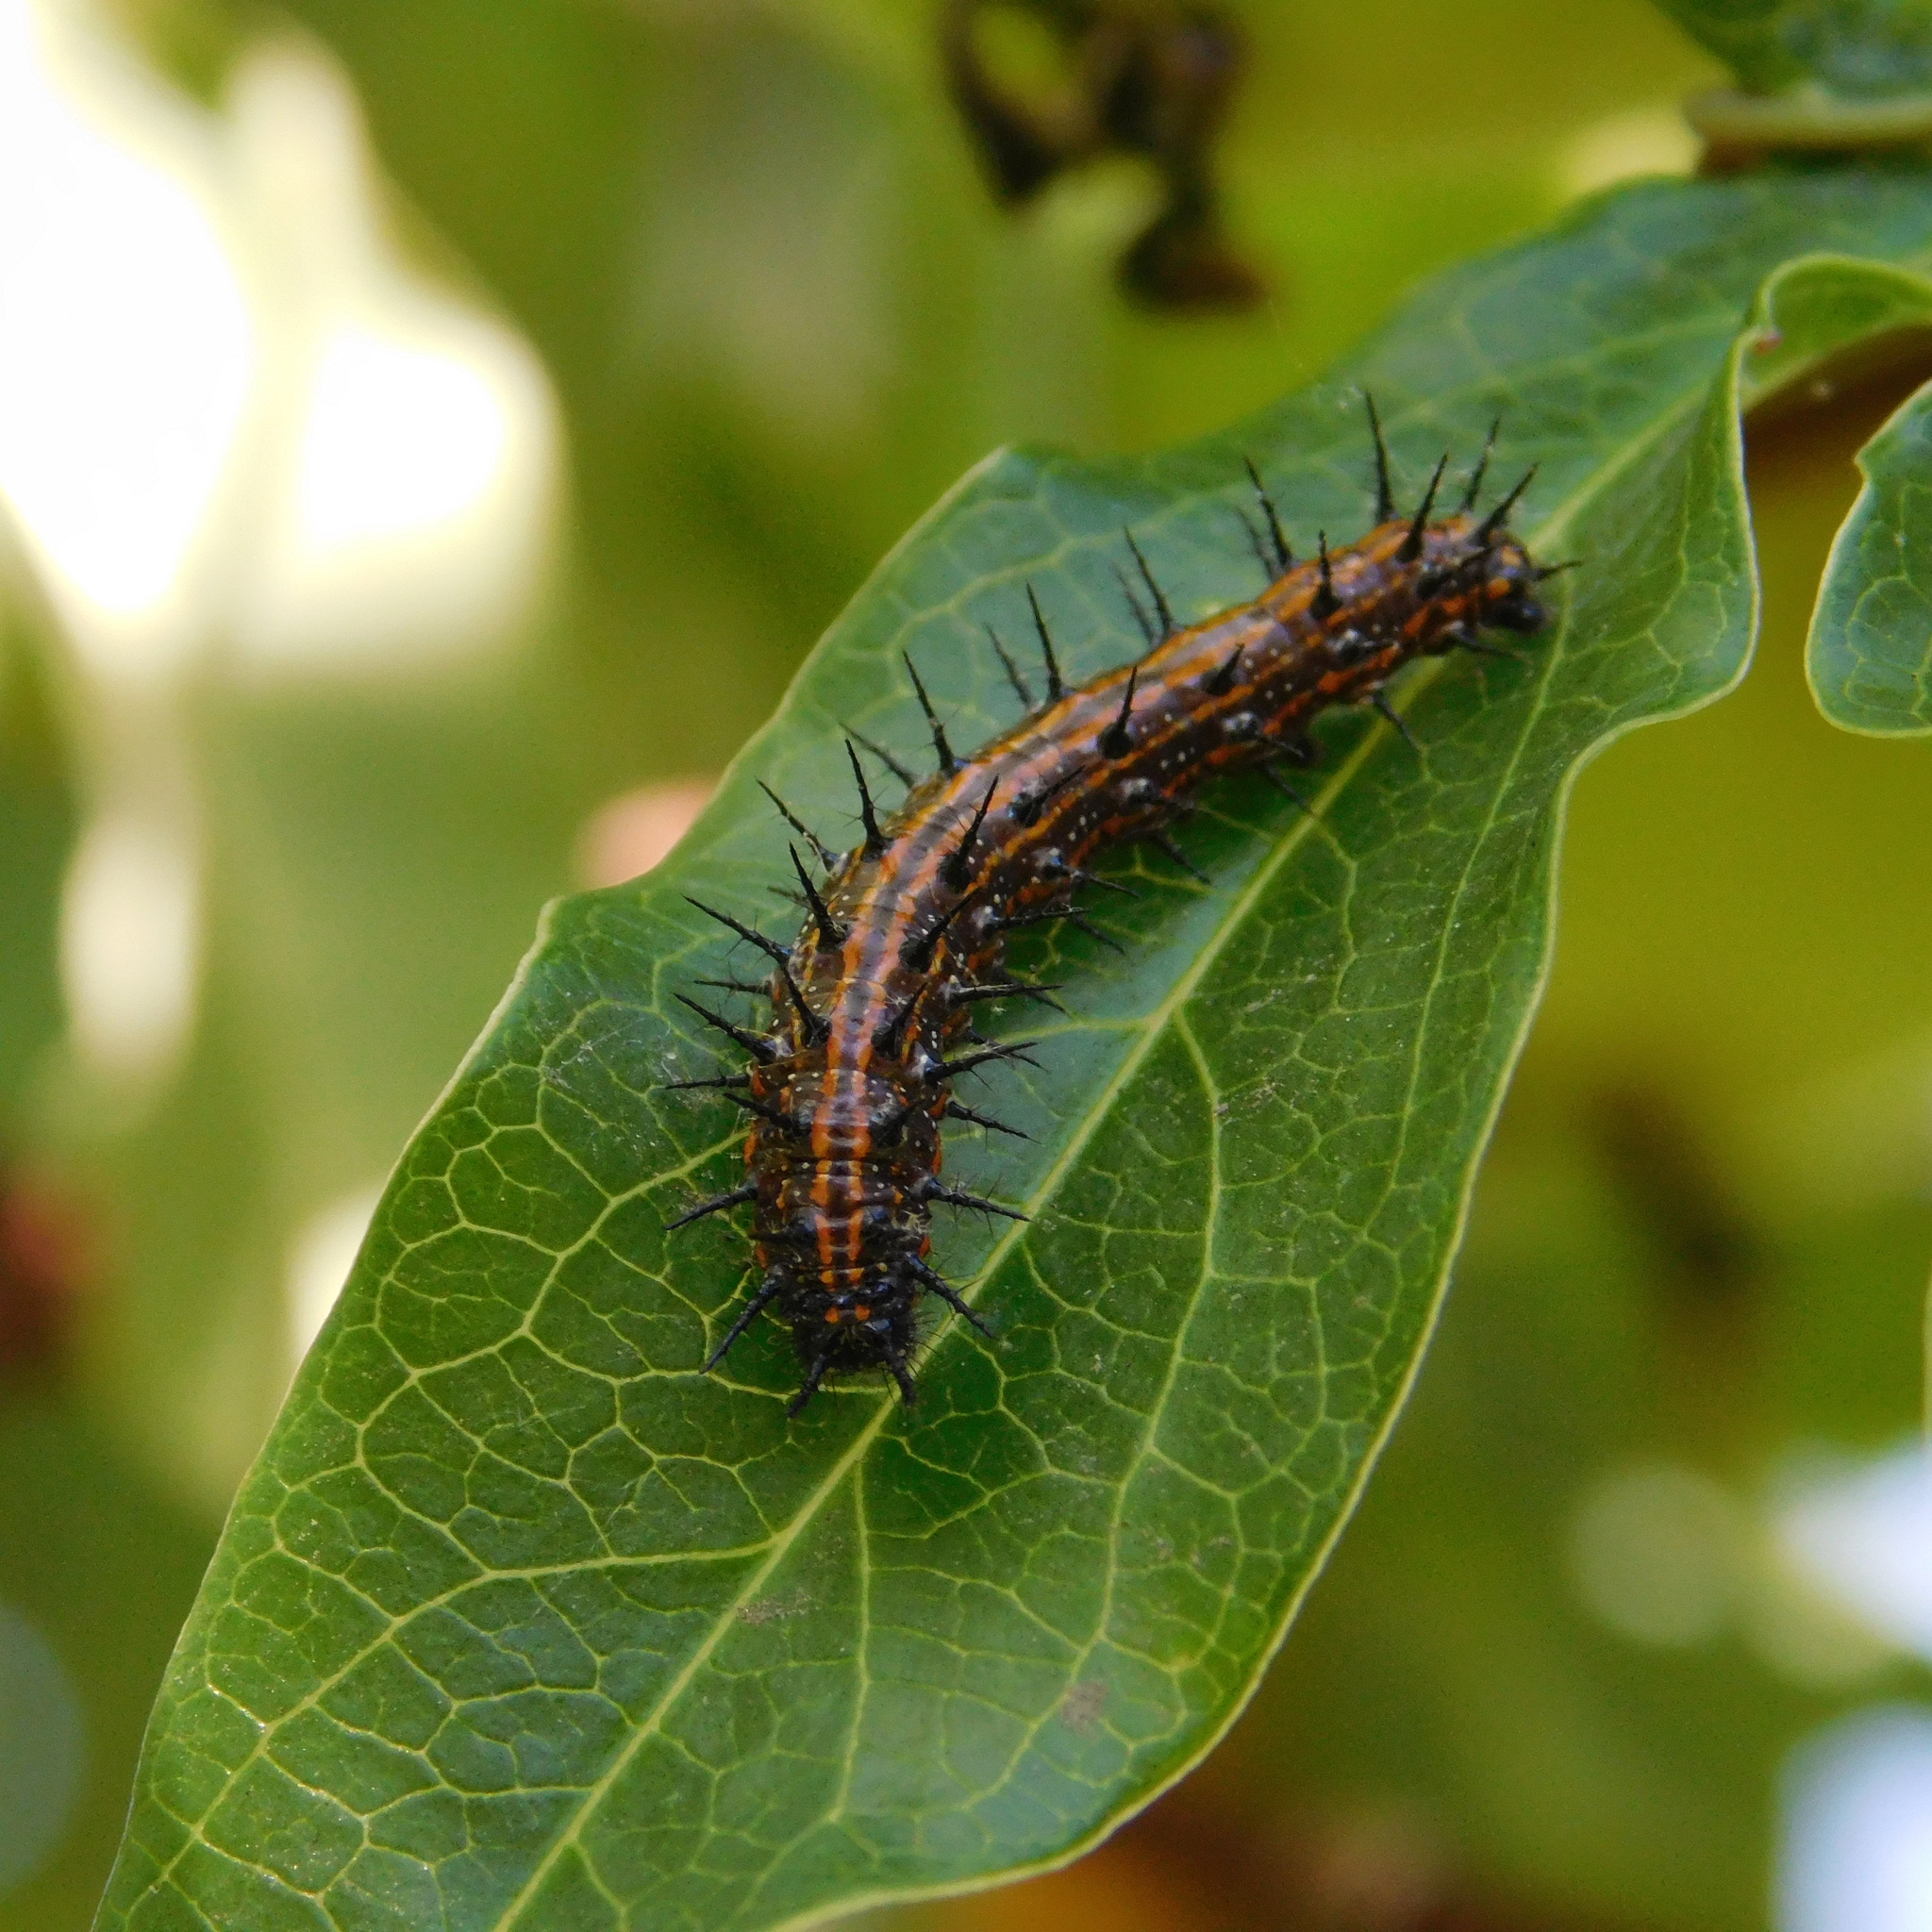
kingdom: Animalia
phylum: Arthropoda
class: Insecta
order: Lepidoptera
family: Nymphalidae
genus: Dione
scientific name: Dione vanillae
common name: Gulf fritillary
